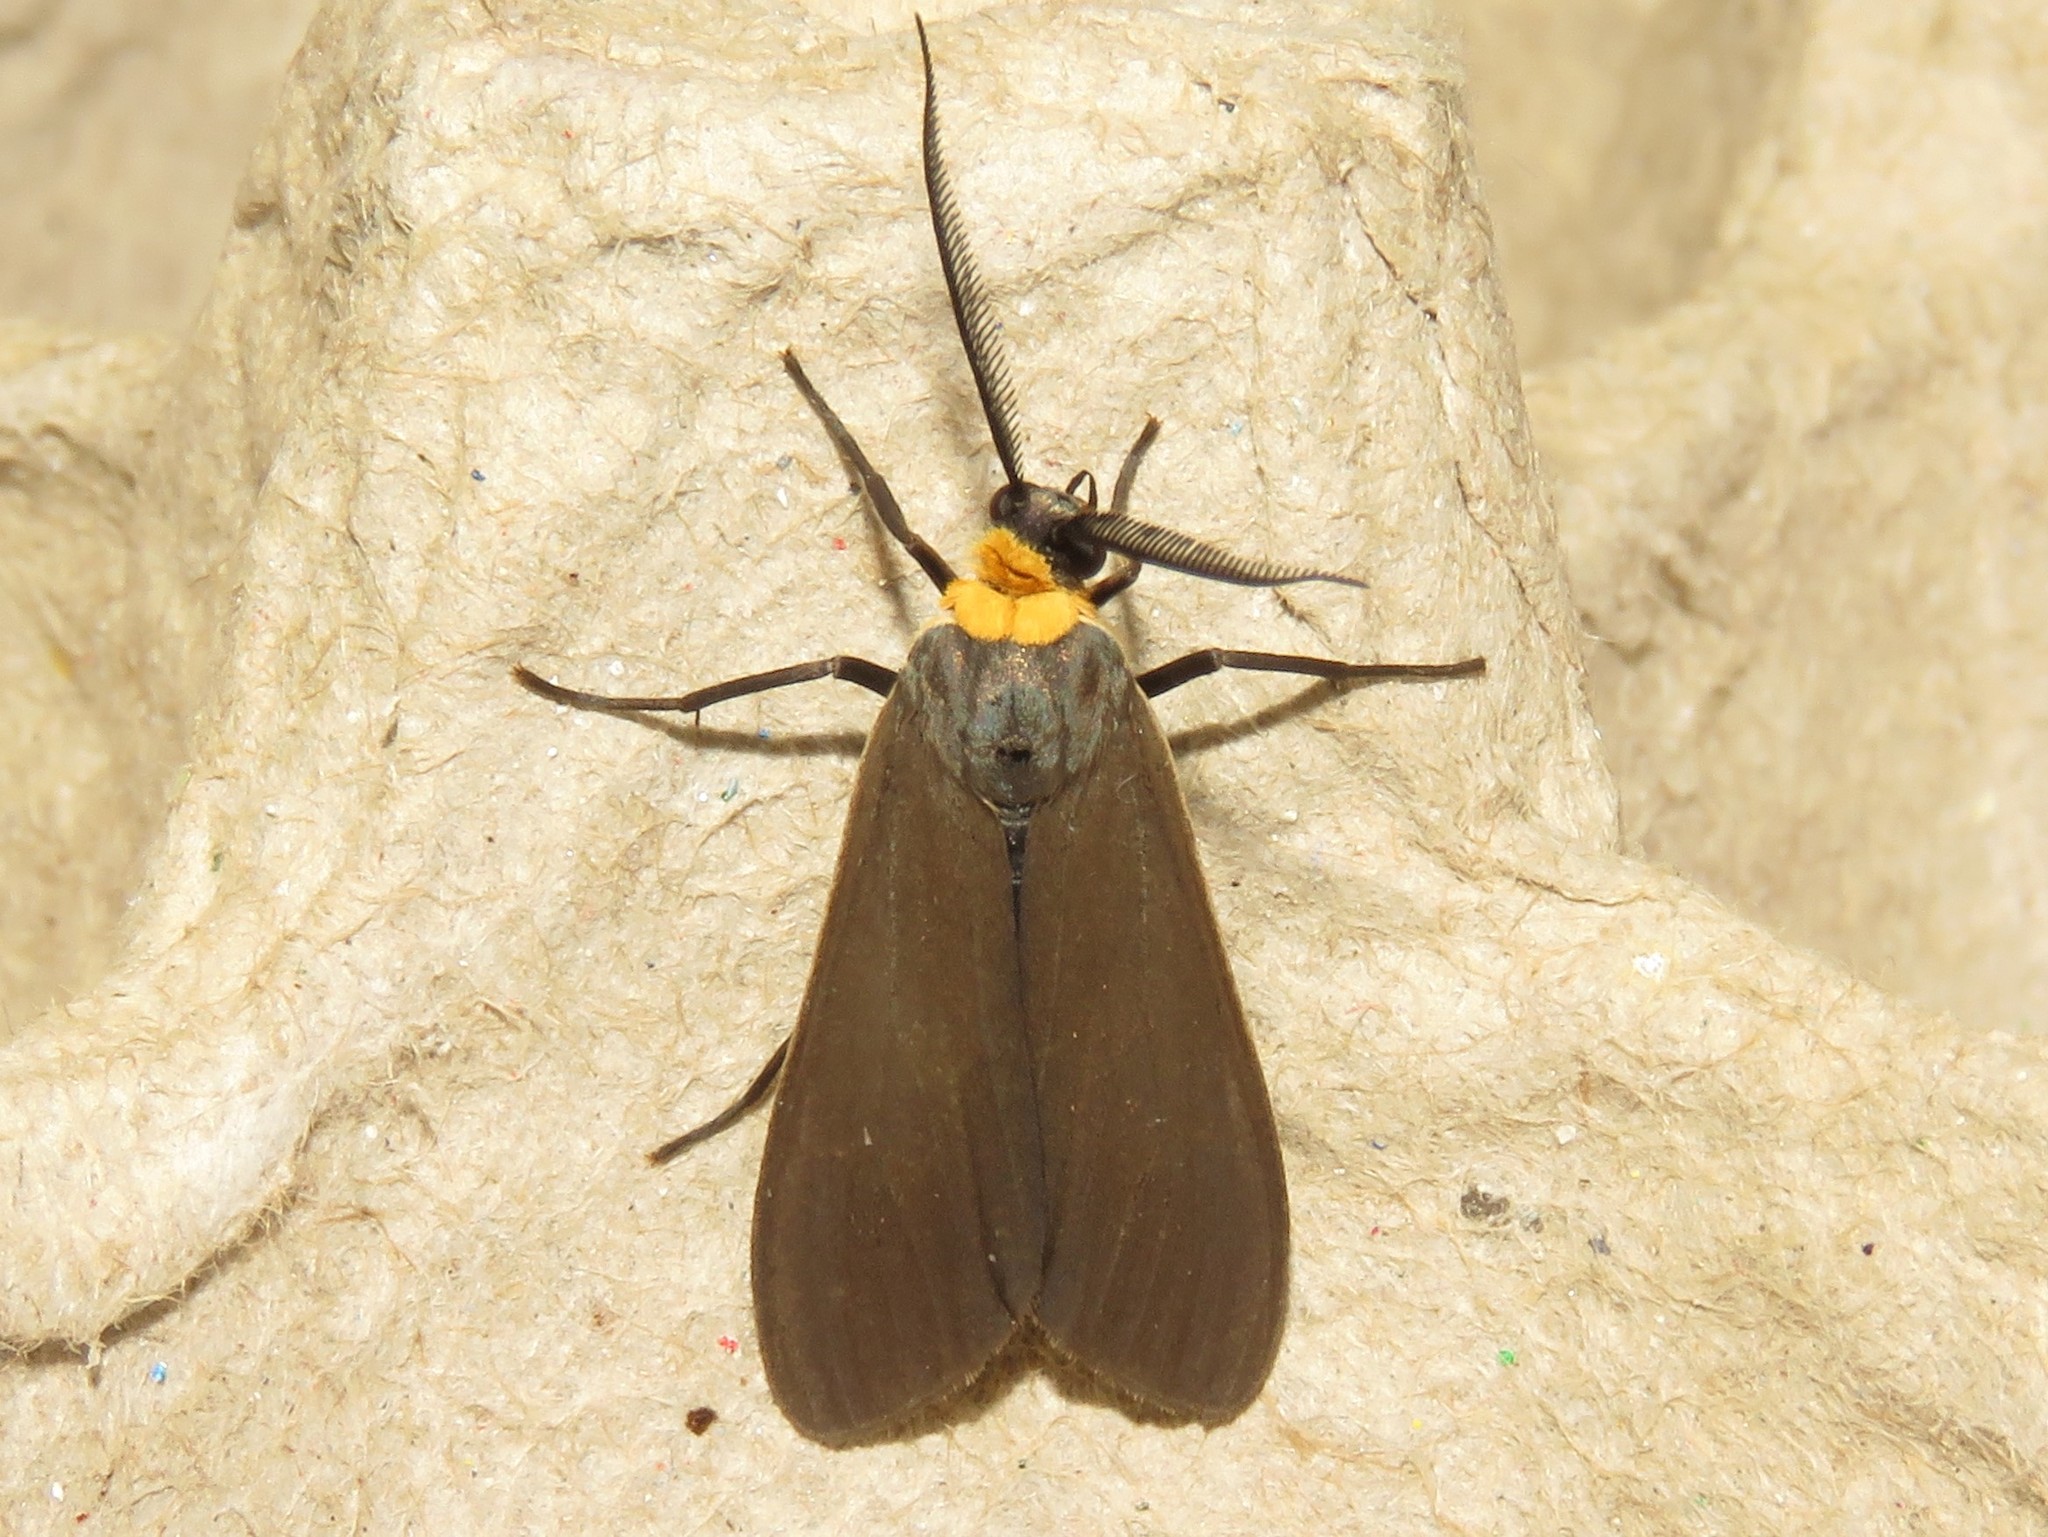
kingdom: Animalia
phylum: Arthropoda
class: Insecta
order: Lepidoptera
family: Erebidae
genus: Cisseps
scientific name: Cisseps fulvicollis
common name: Yellow-collared scape moth
